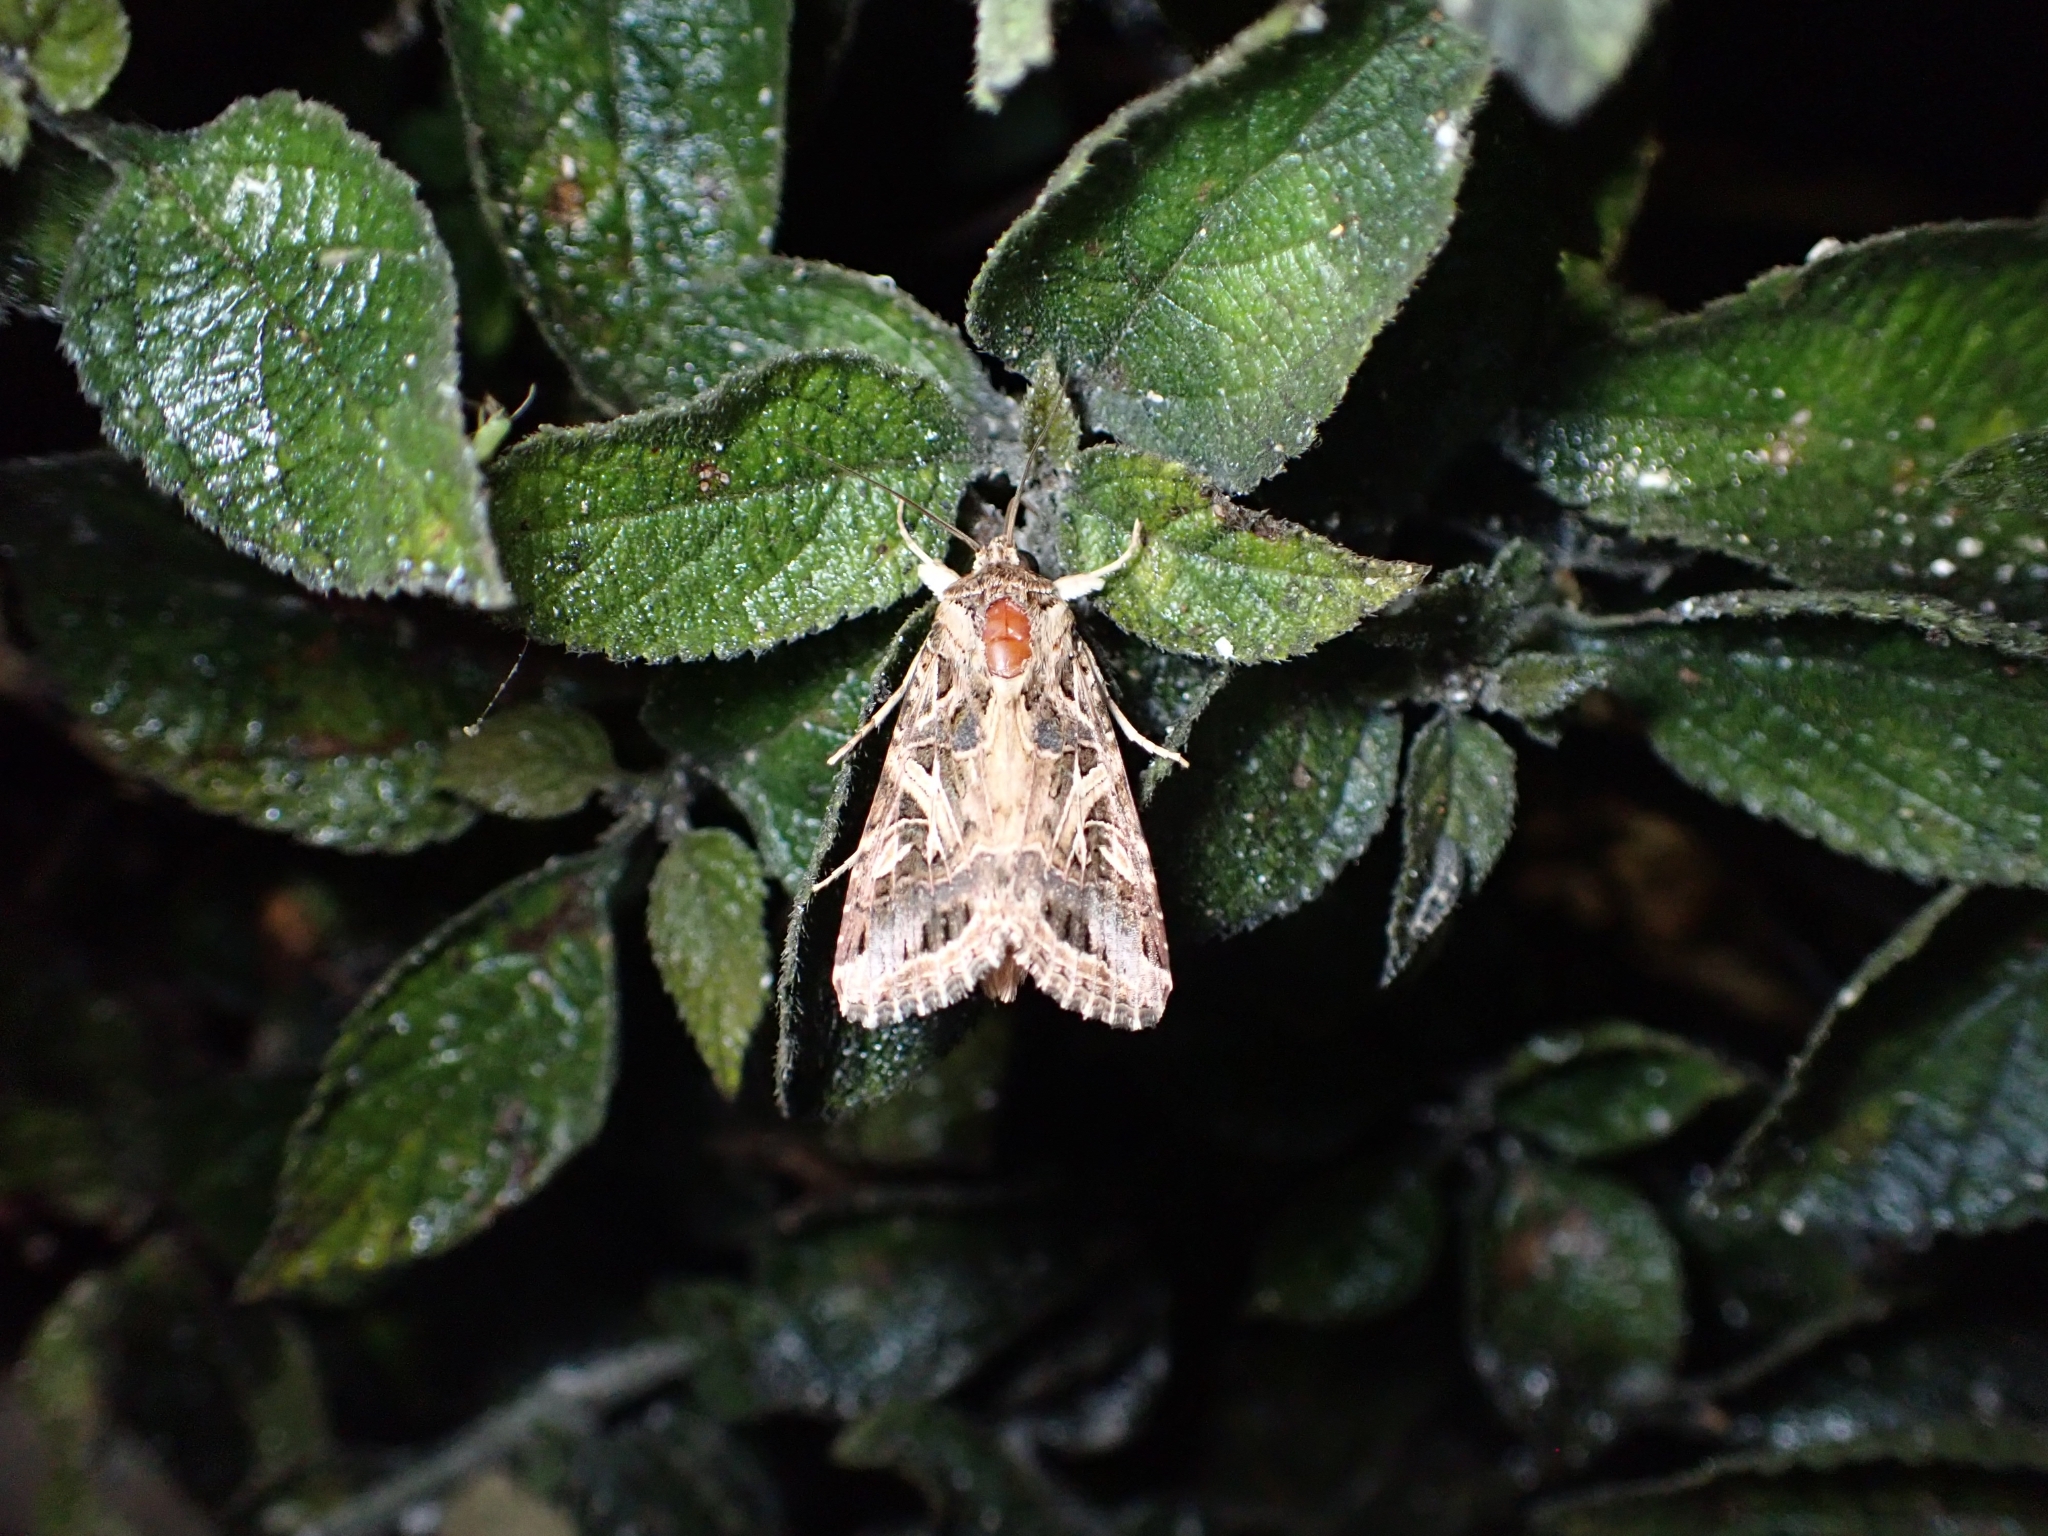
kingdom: Animalia
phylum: Arthropoda
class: Insecta
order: Lepidoptera
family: Noctuidae
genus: Spodoptera
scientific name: Spodoptera littoralis
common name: Egyptian cotton leafworm
